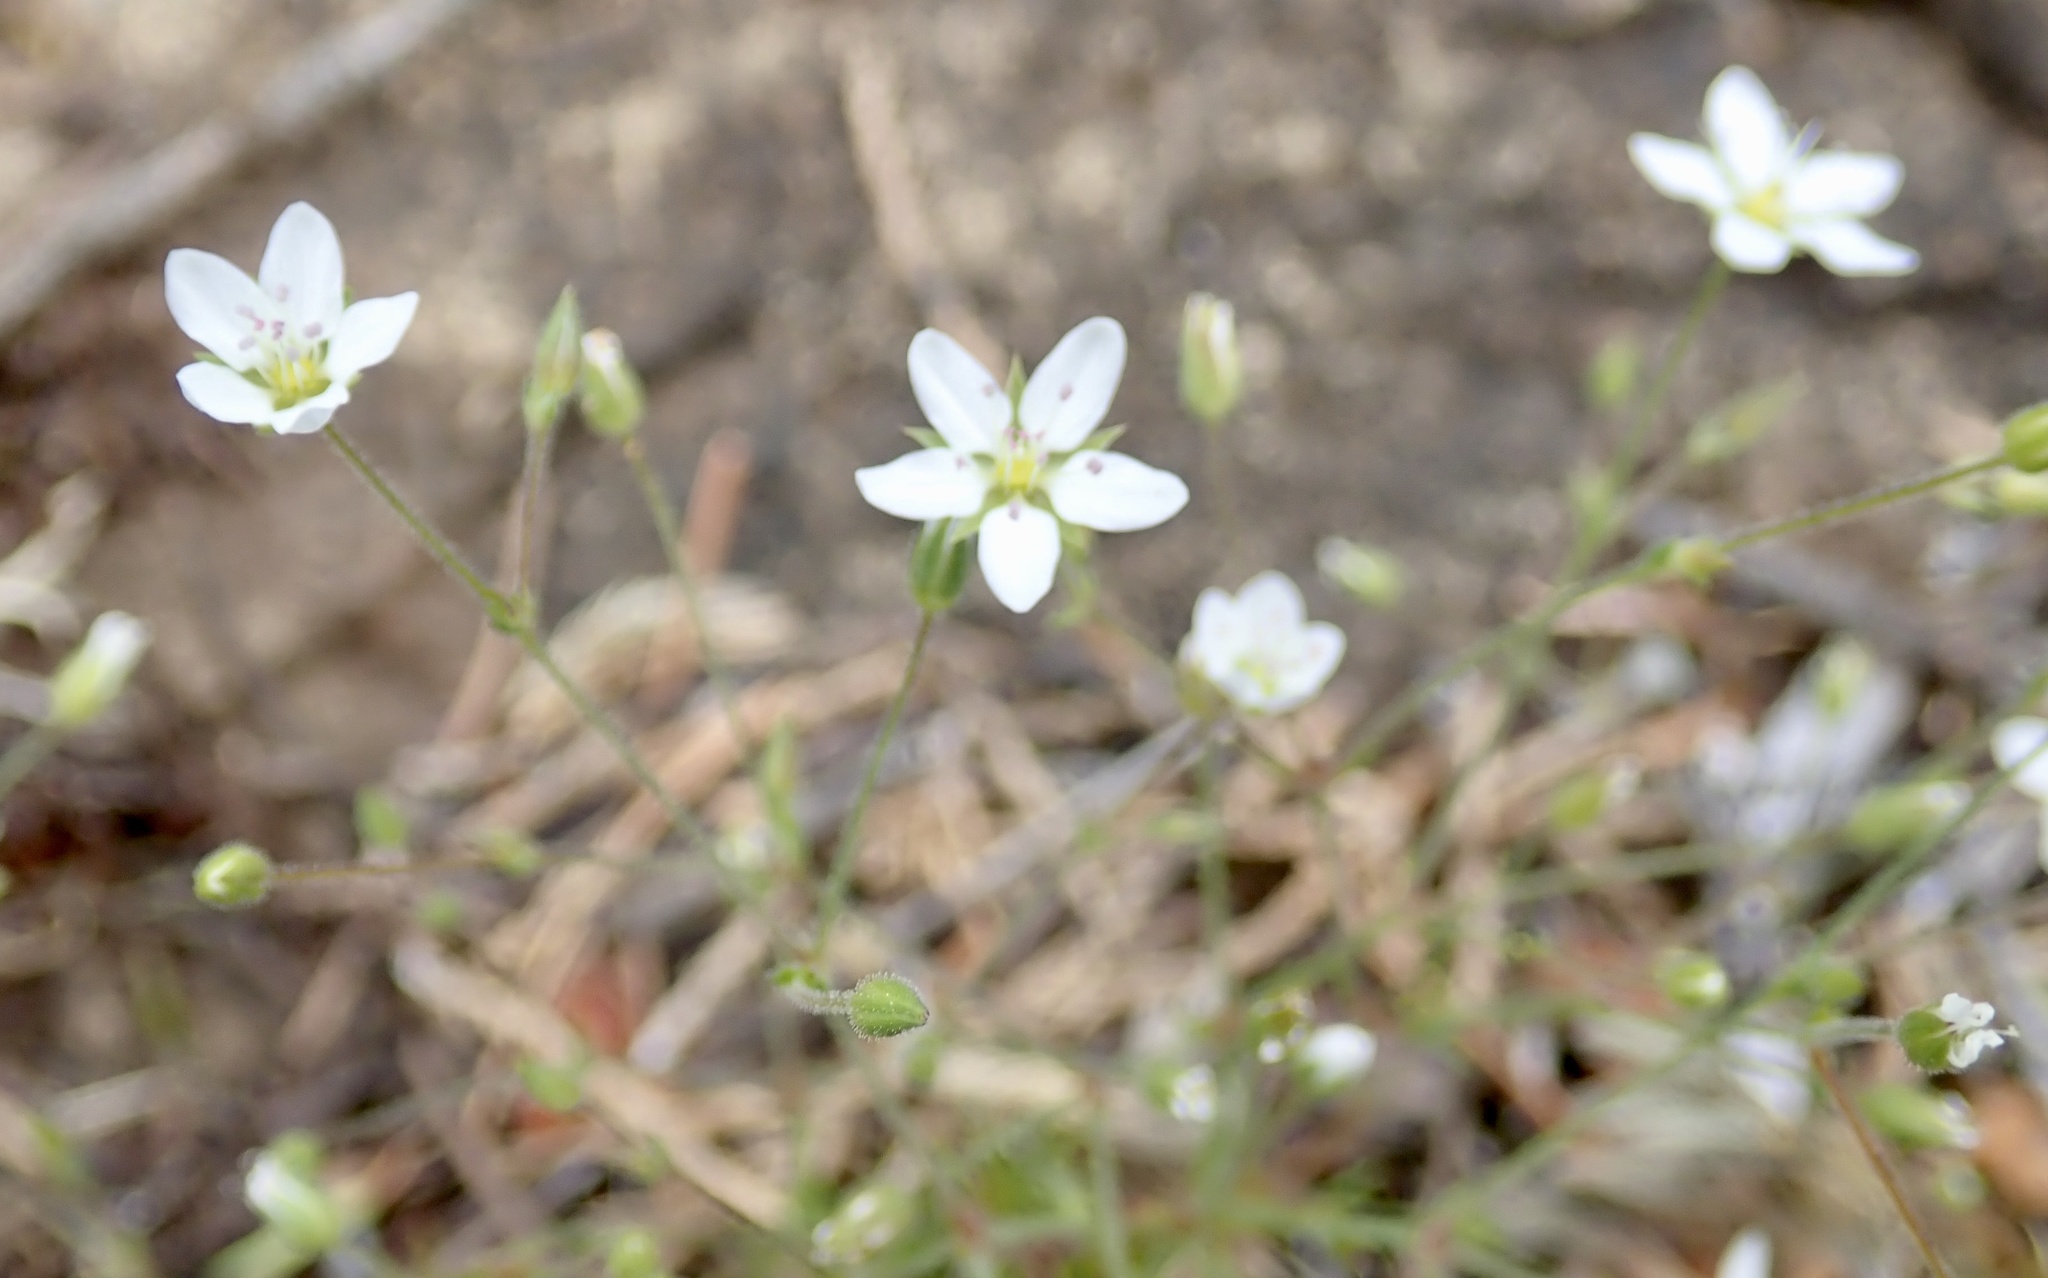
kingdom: Plantae
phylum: Tracheophyta
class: Magnoliopsida
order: Caryophyllales
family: Caryophyllaceae
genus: Sabulina
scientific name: Sabulina macra
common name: Slender sandwort
